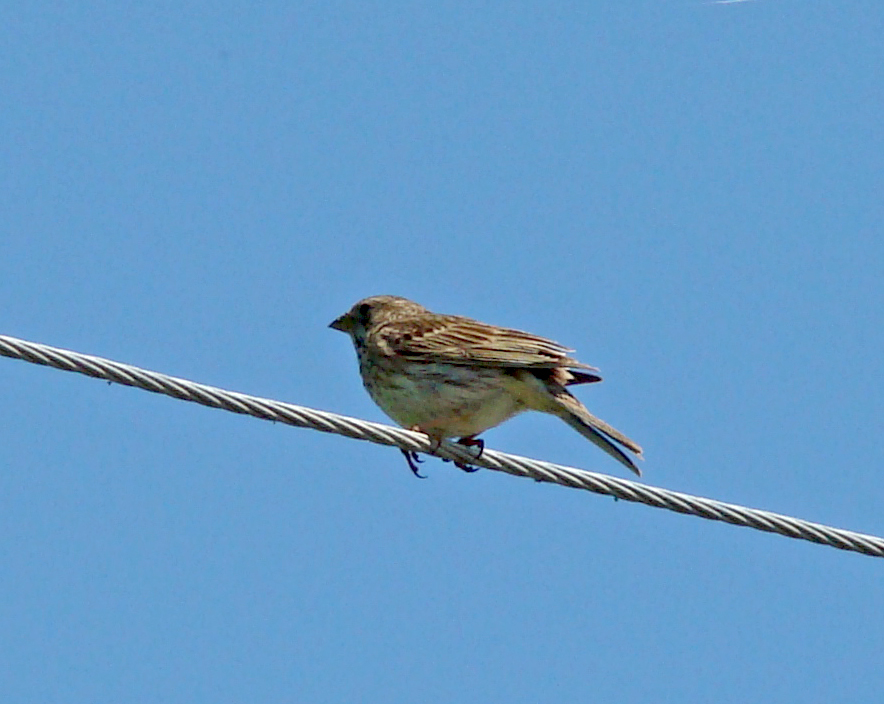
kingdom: Animalia
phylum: Chordata
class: Aves
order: Passeriformes
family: Emberizidae
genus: Emberiza
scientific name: Emberiza calandra
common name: Corn bunting
